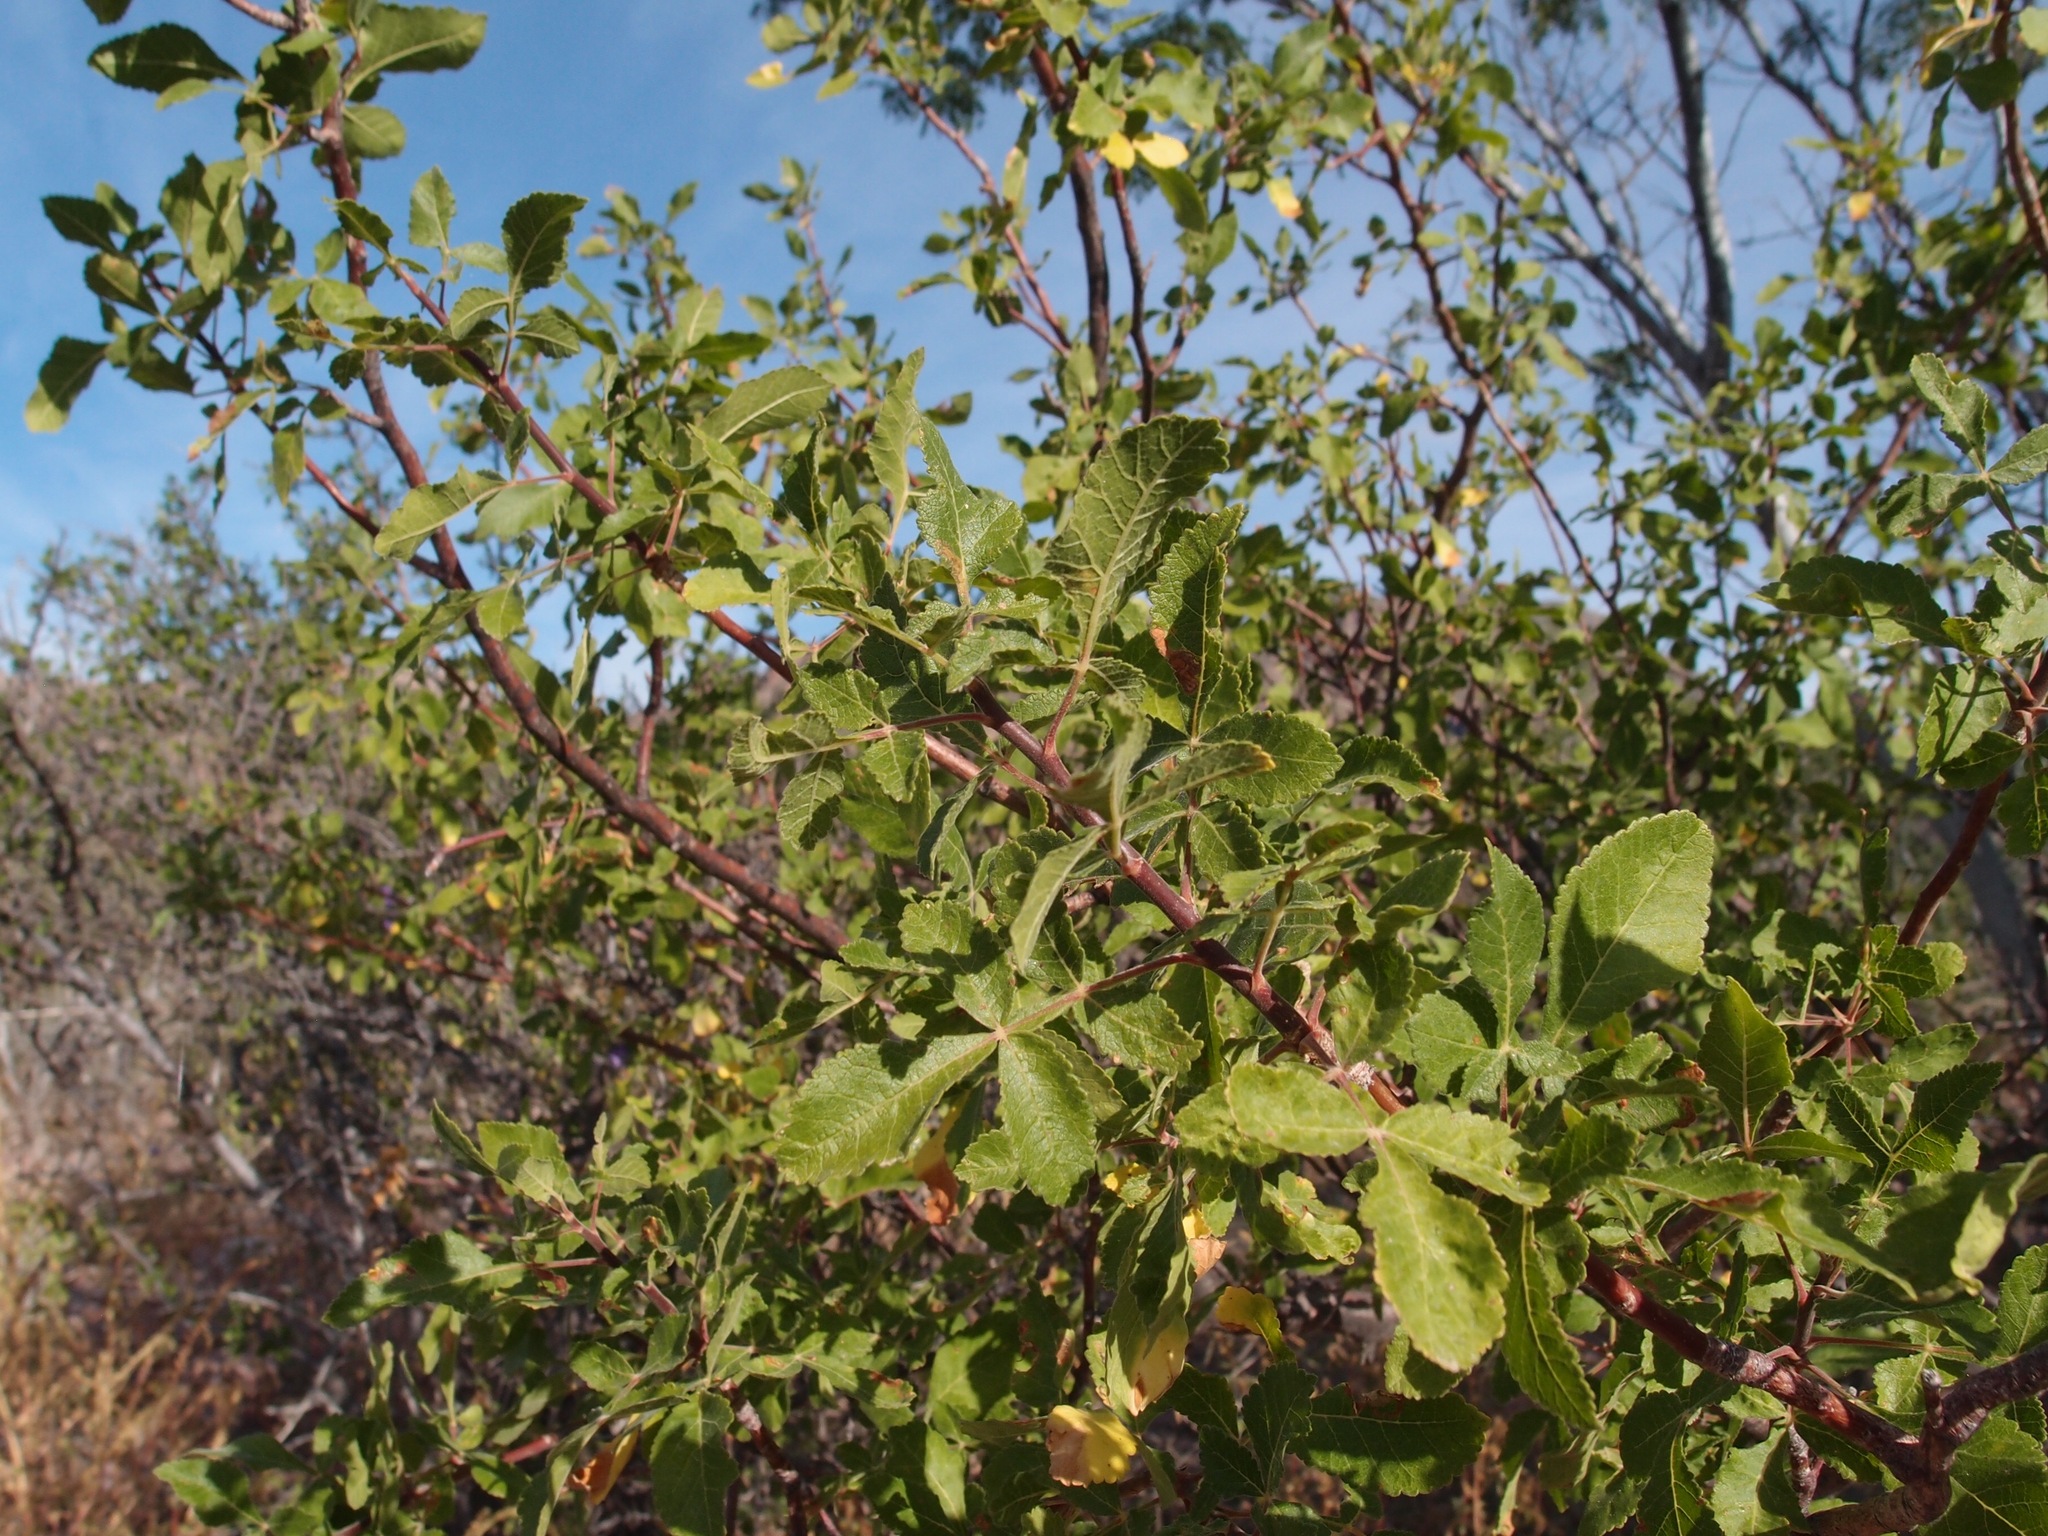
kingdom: Plantae
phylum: Tracheophyta
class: Magnoliopsida
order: Sapindales
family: Burseraceae
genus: Bursera
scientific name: Bursera hindsiana
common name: Red elephant tree
